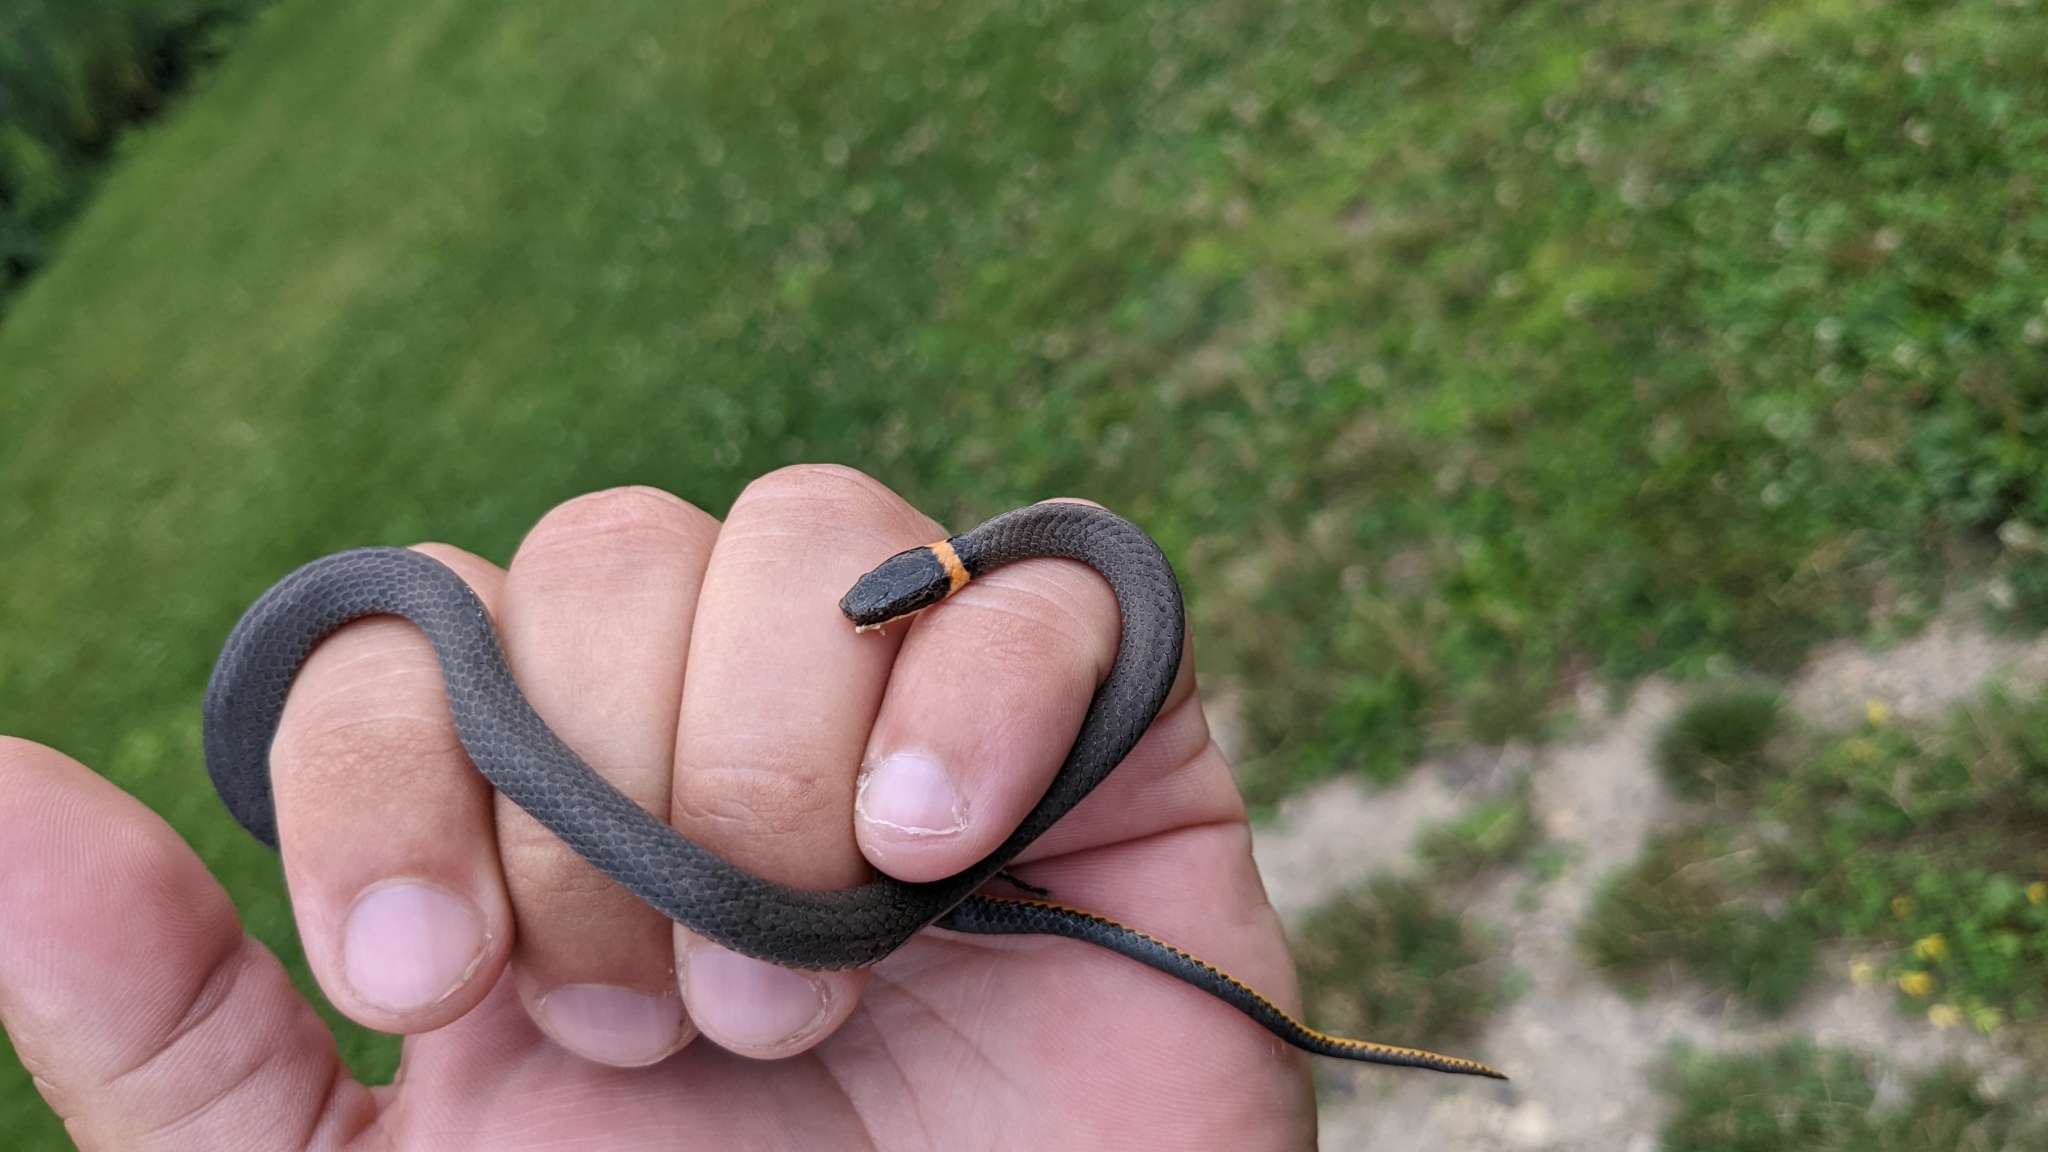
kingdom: Animalia
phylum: Chordata
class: Squamata
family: Colubridae
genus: Diadophis
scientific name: Diadophis punctatus
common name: Ringneck snake
